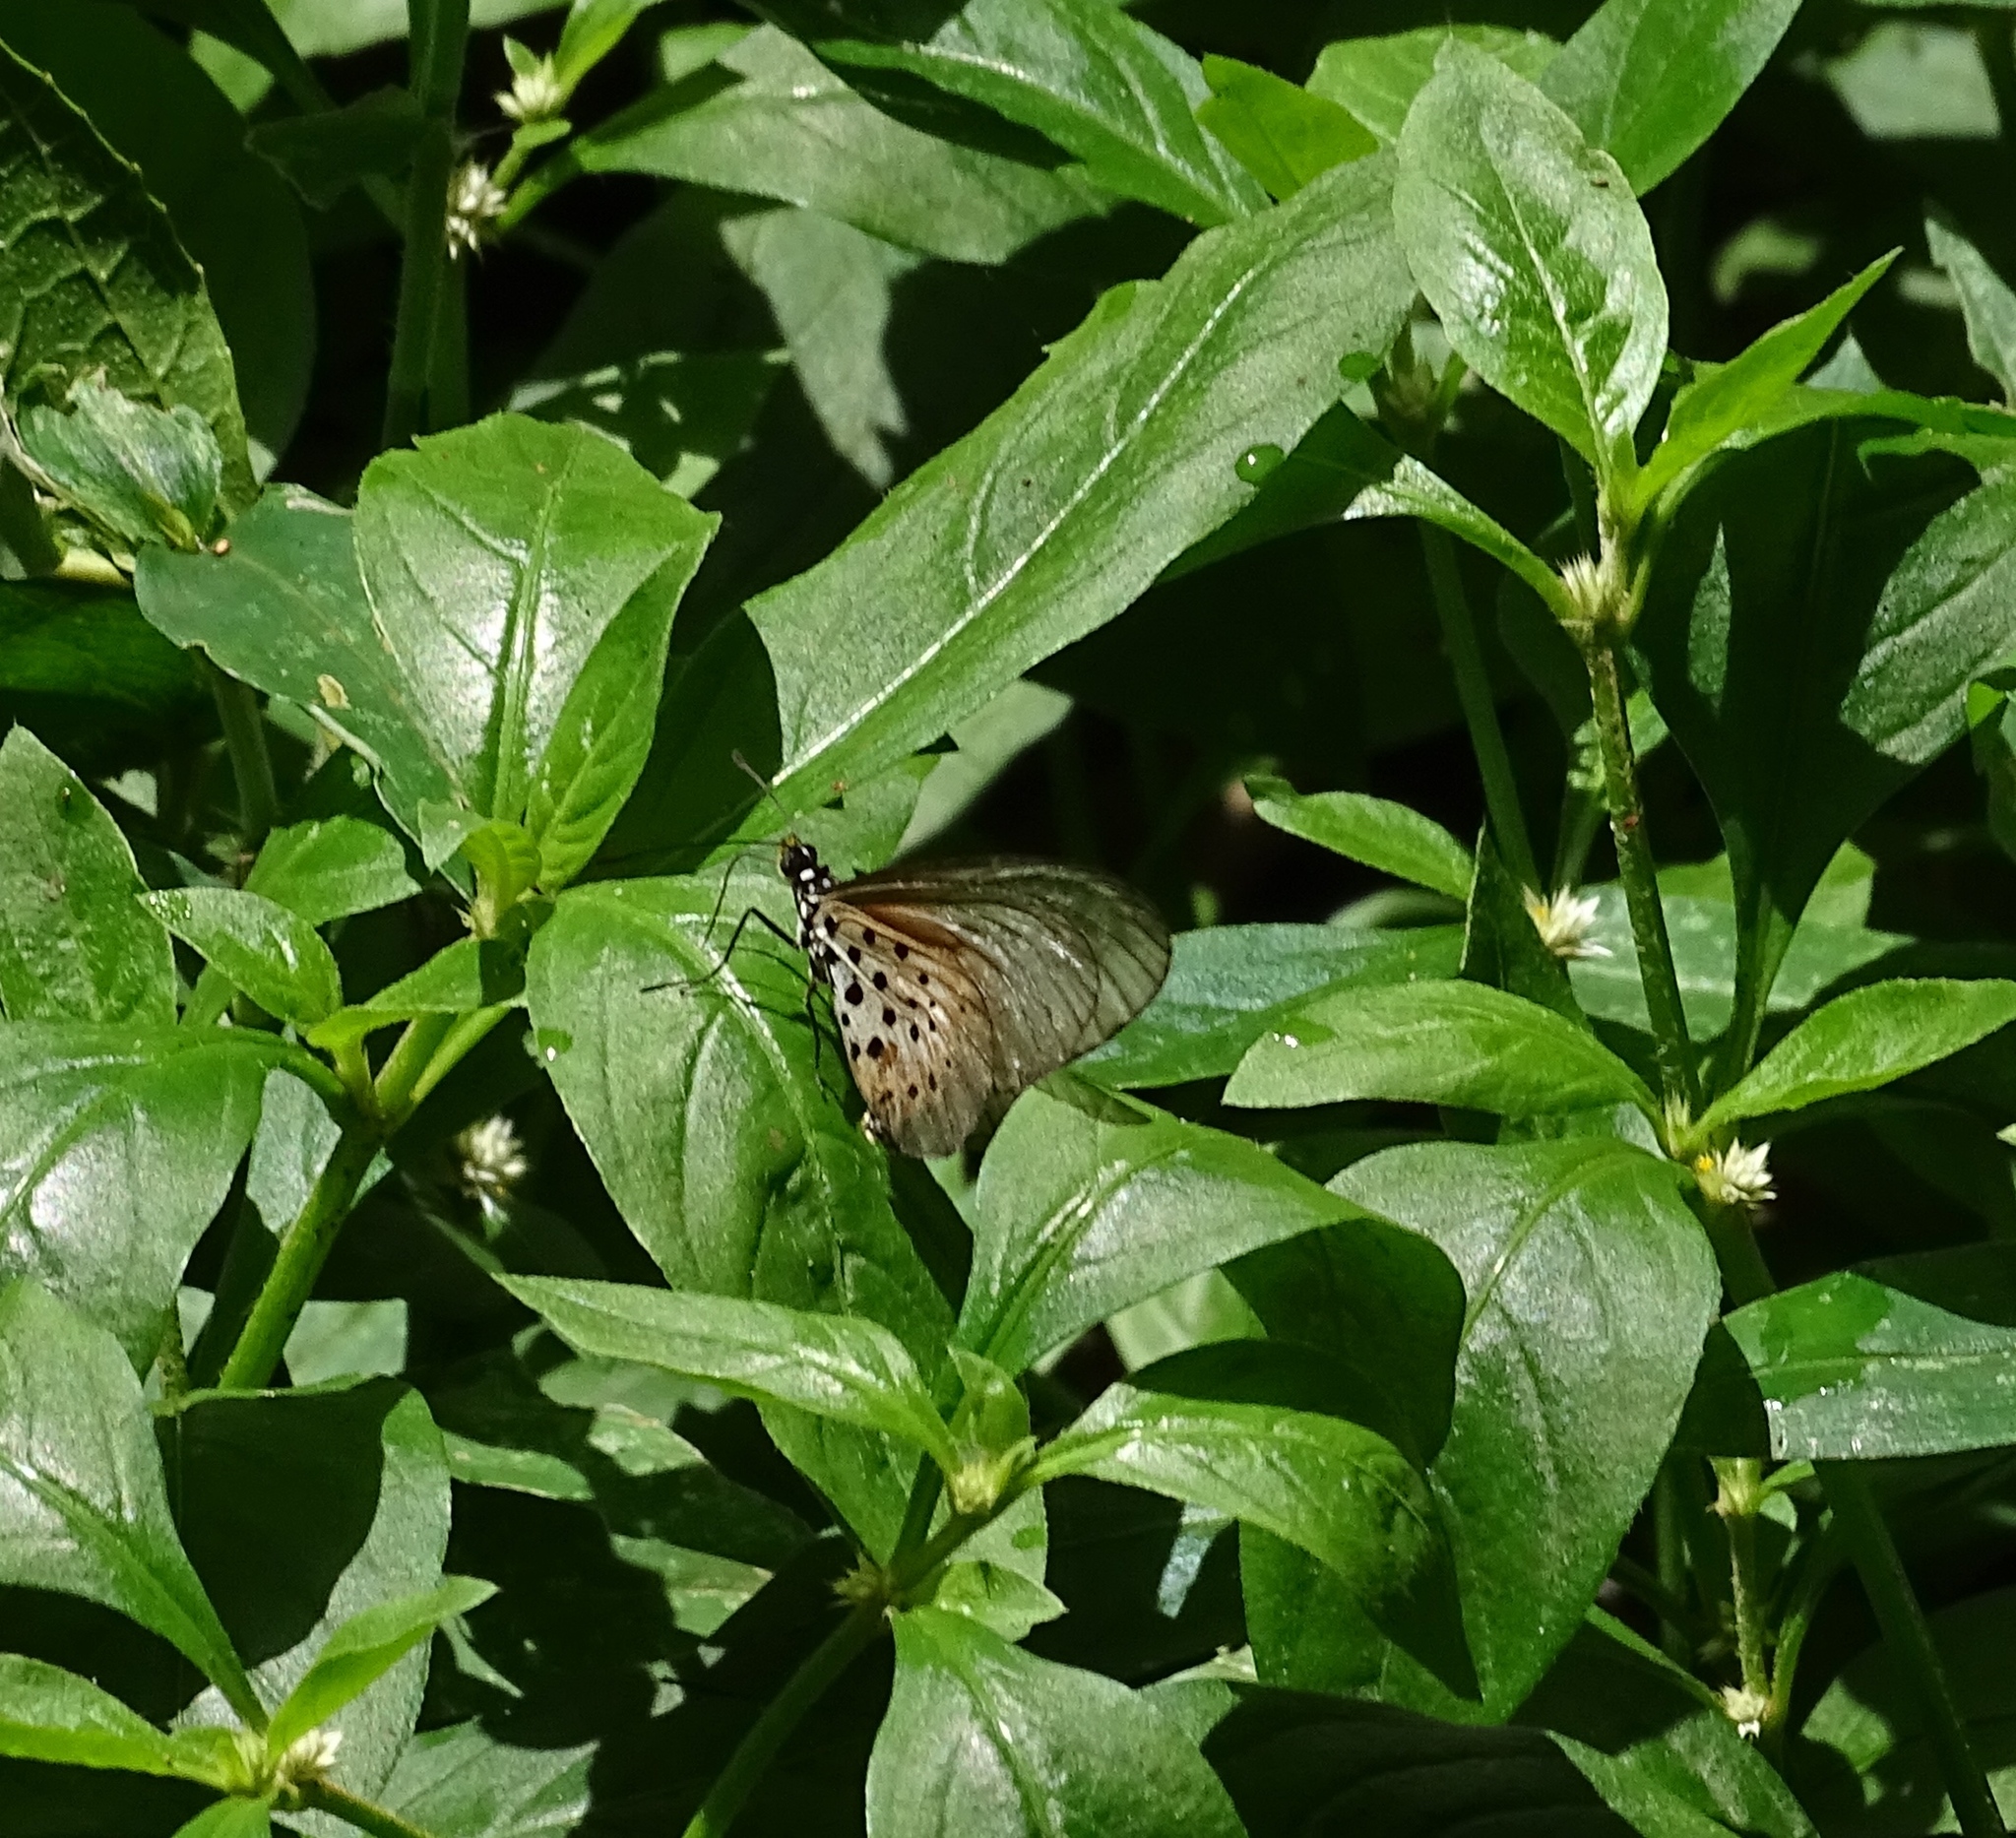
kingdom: Animalia
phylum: Arthropoda
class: Insecta
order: Lepidoptera
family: Nymphalidae
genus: Acraea
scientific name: Acraea quirina
